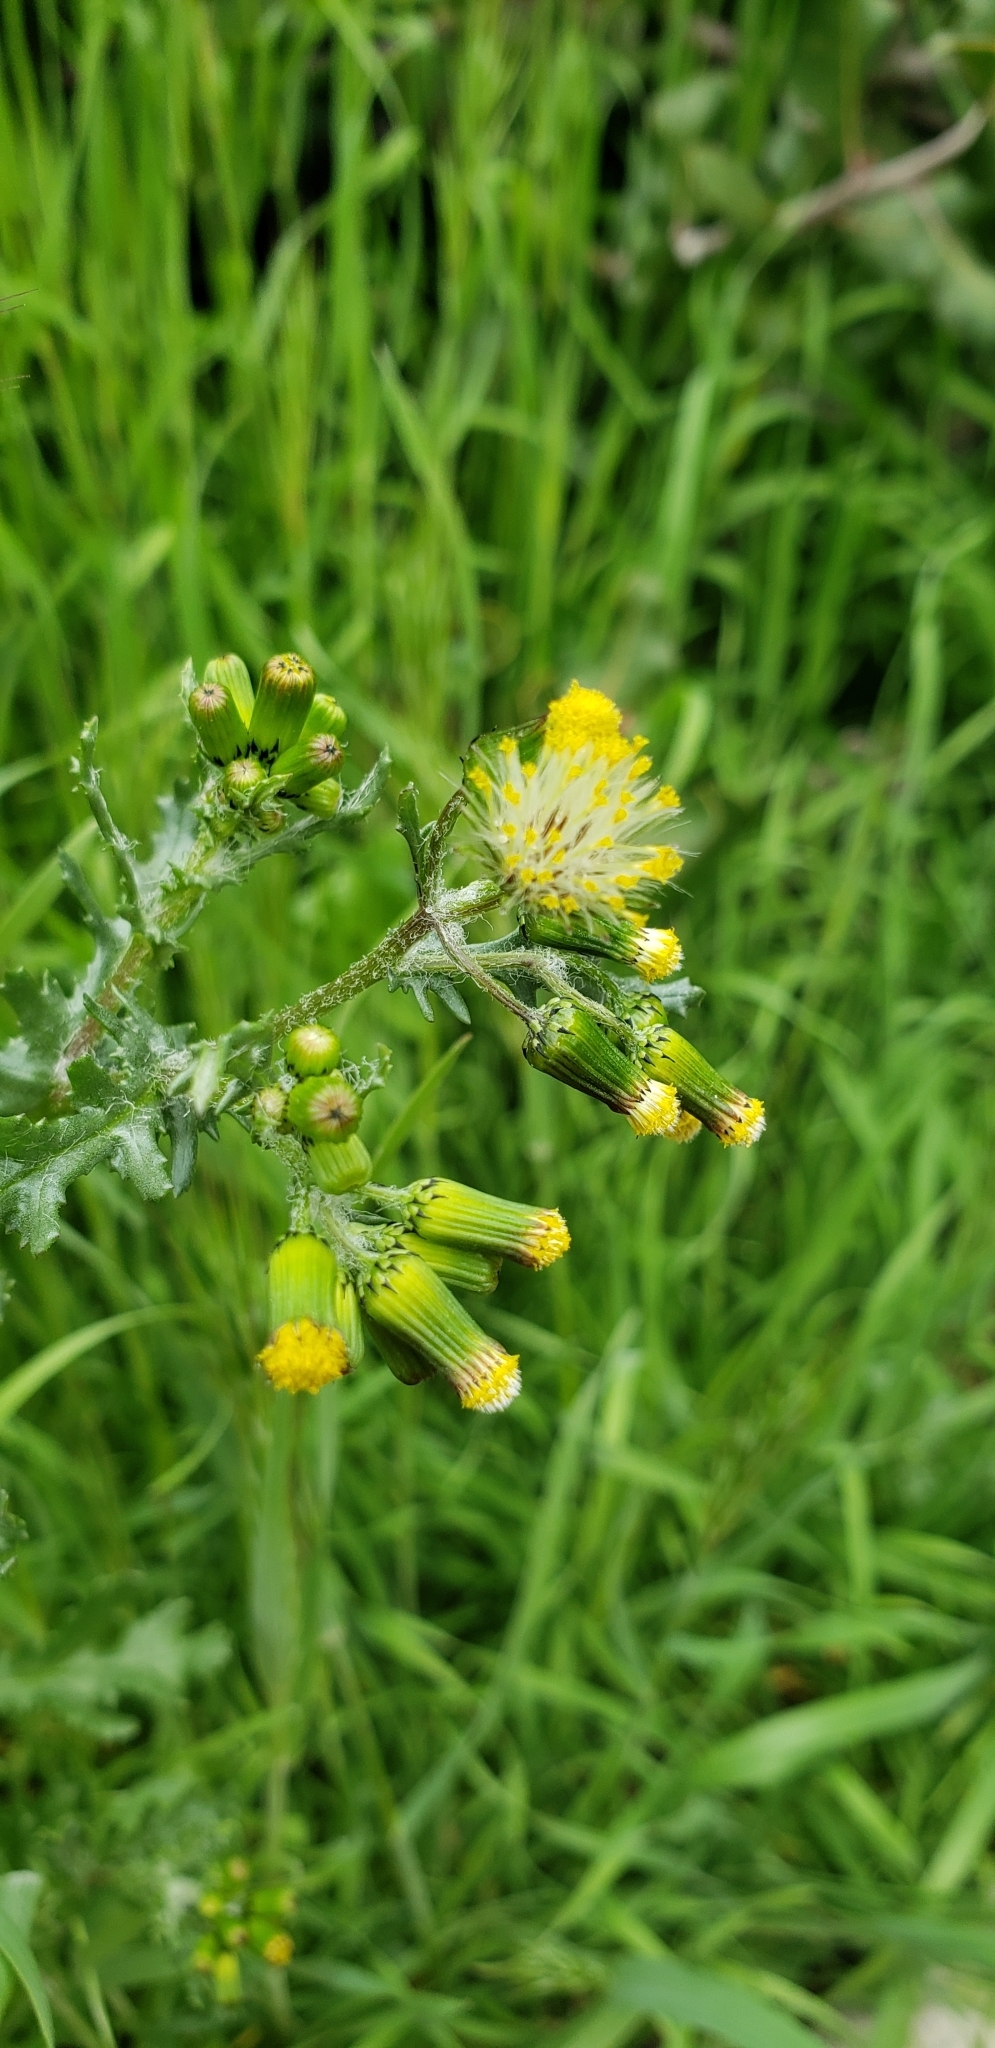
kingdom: Plantae
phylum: Tracheophyta
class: Magnoliopsida
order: Asterales
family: Asteraceae
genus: Senecio
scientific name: Senecio vulgaris
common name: Old-man-in-the-spring
